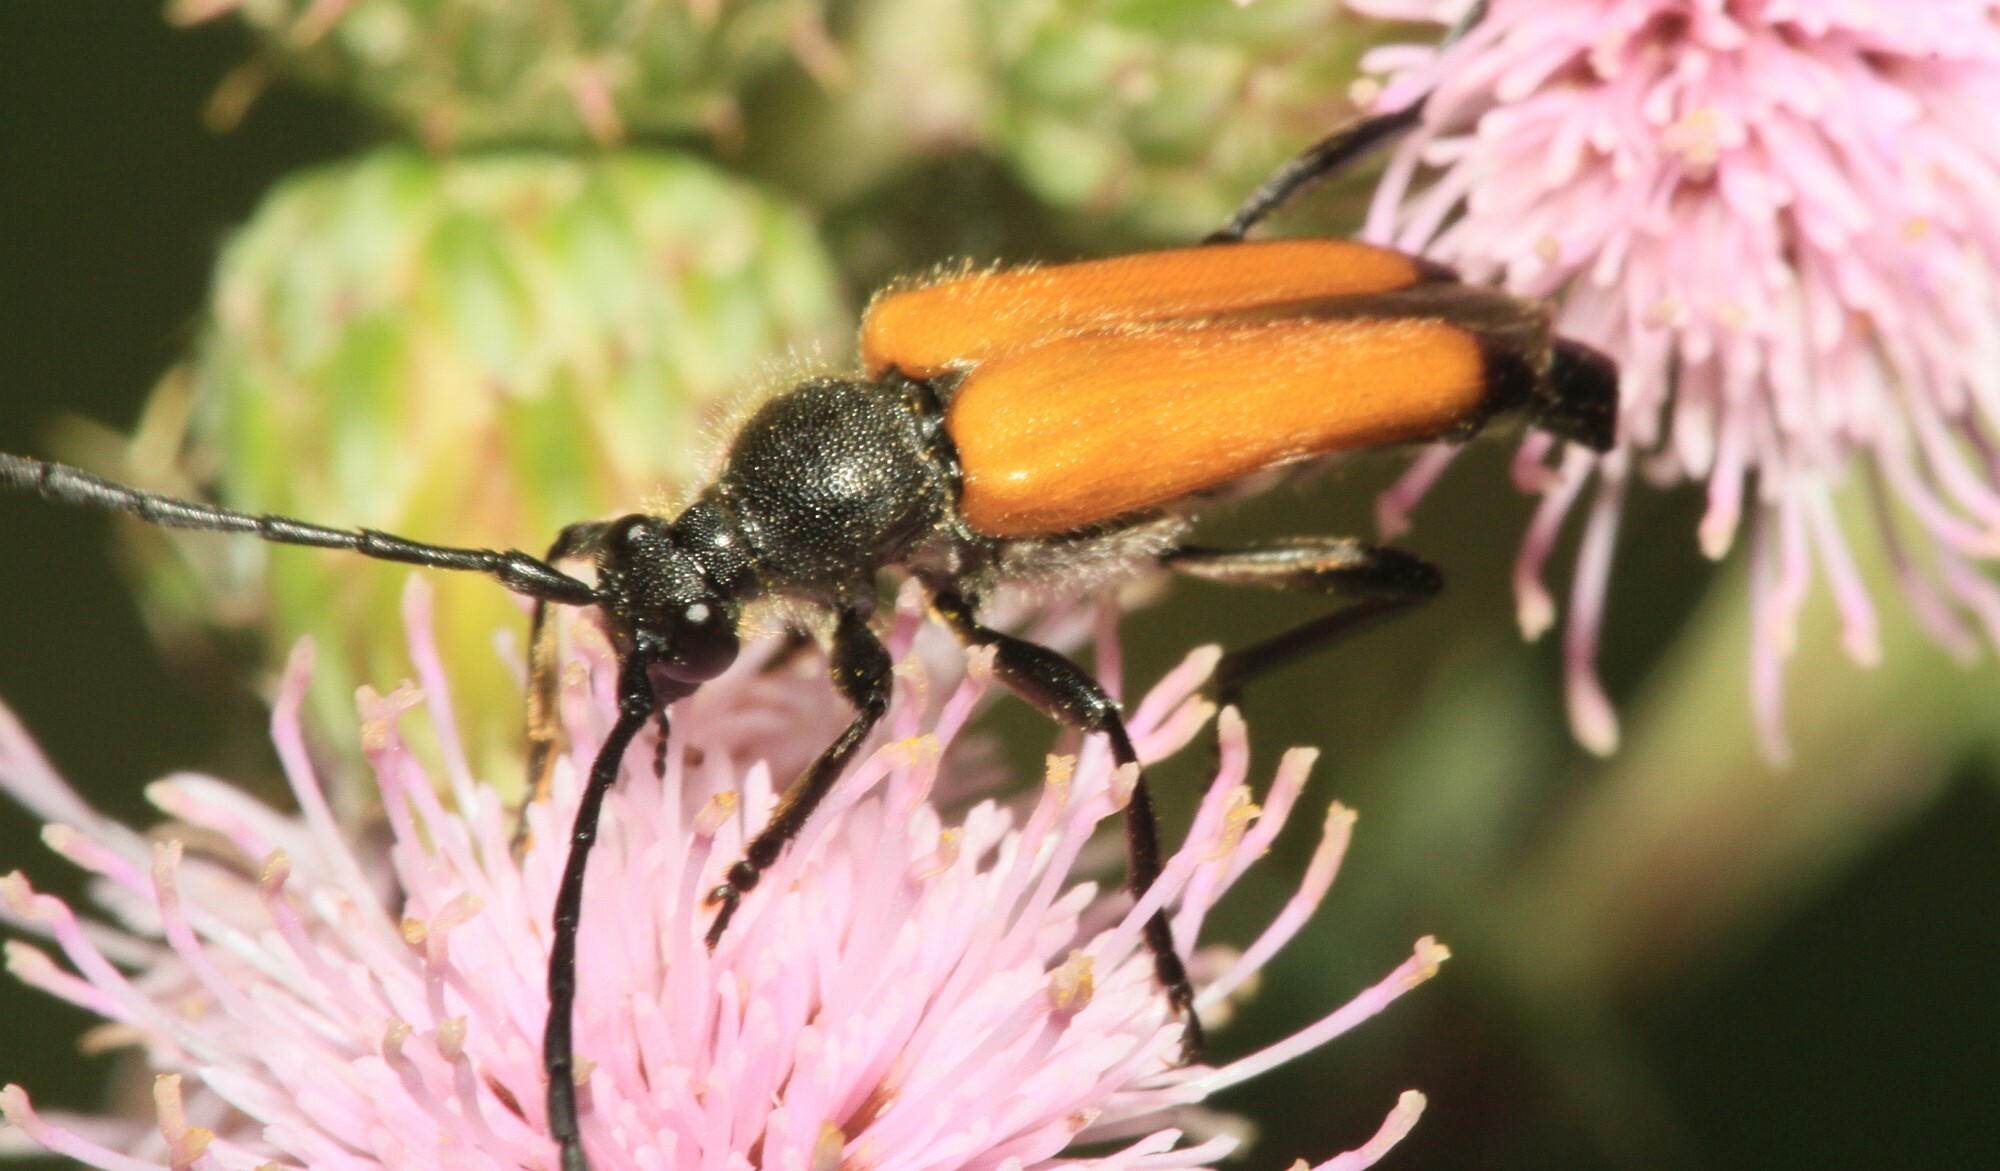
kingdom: Animalia
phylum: Arthropoda
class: Insecta
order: Coleoptera
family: Cerambycidae
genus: Paracorymbia
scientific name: Paracorymbia fulva
